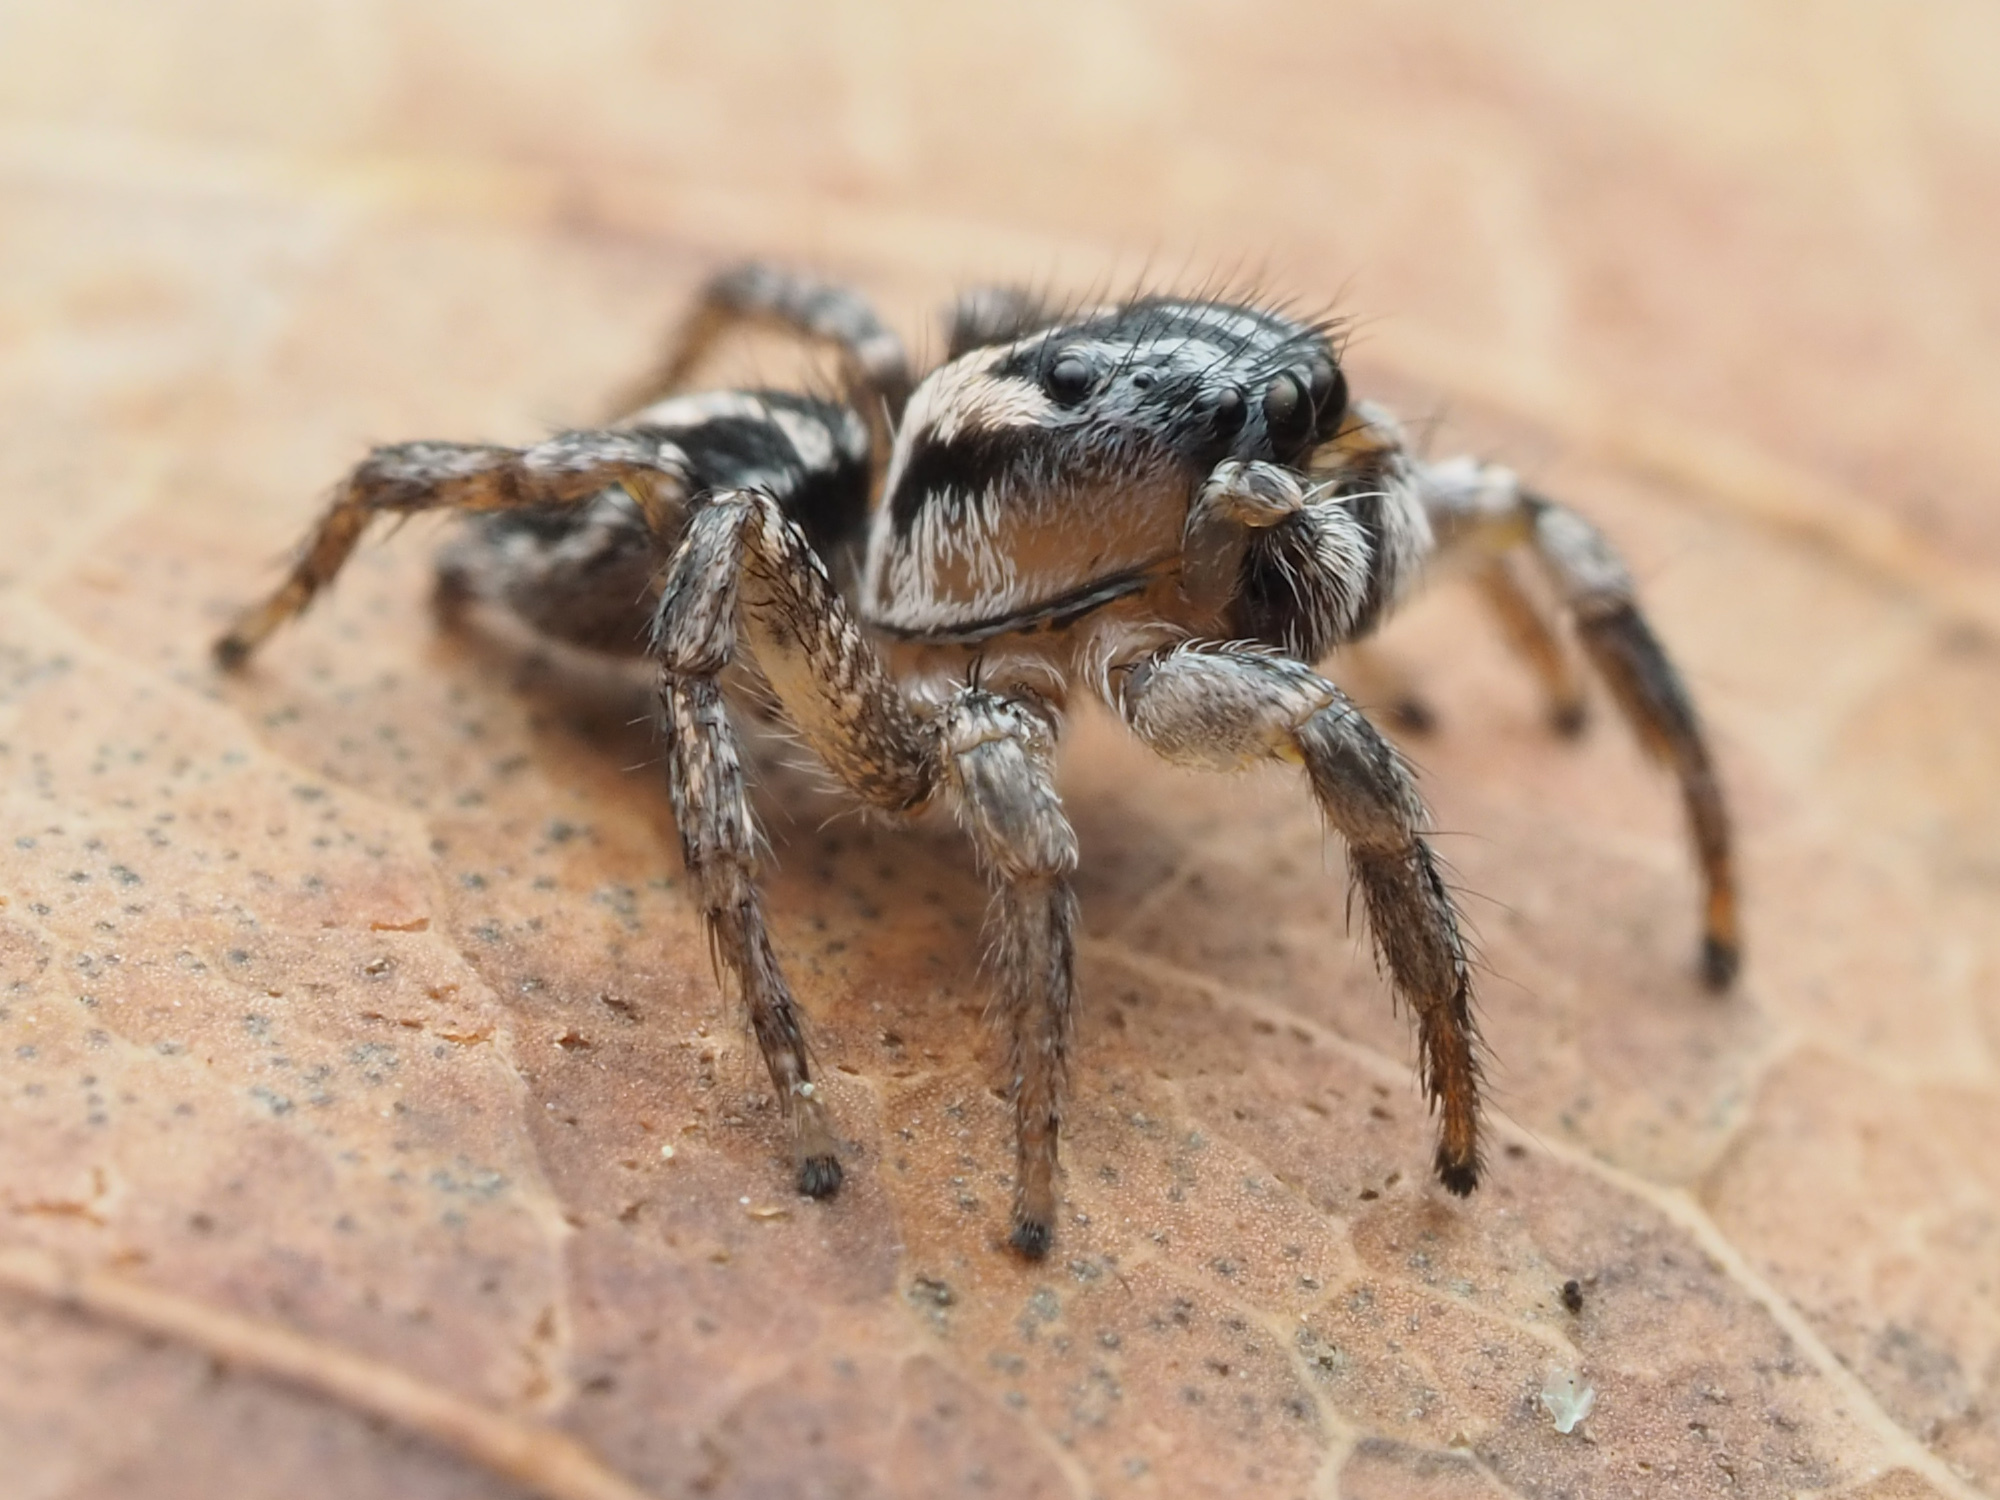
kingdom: Animalia
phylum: Arthropoda
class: Arachnida
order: Araneae
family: Salticidae
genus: Habronattus
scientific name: Habronattus trimaculatus
